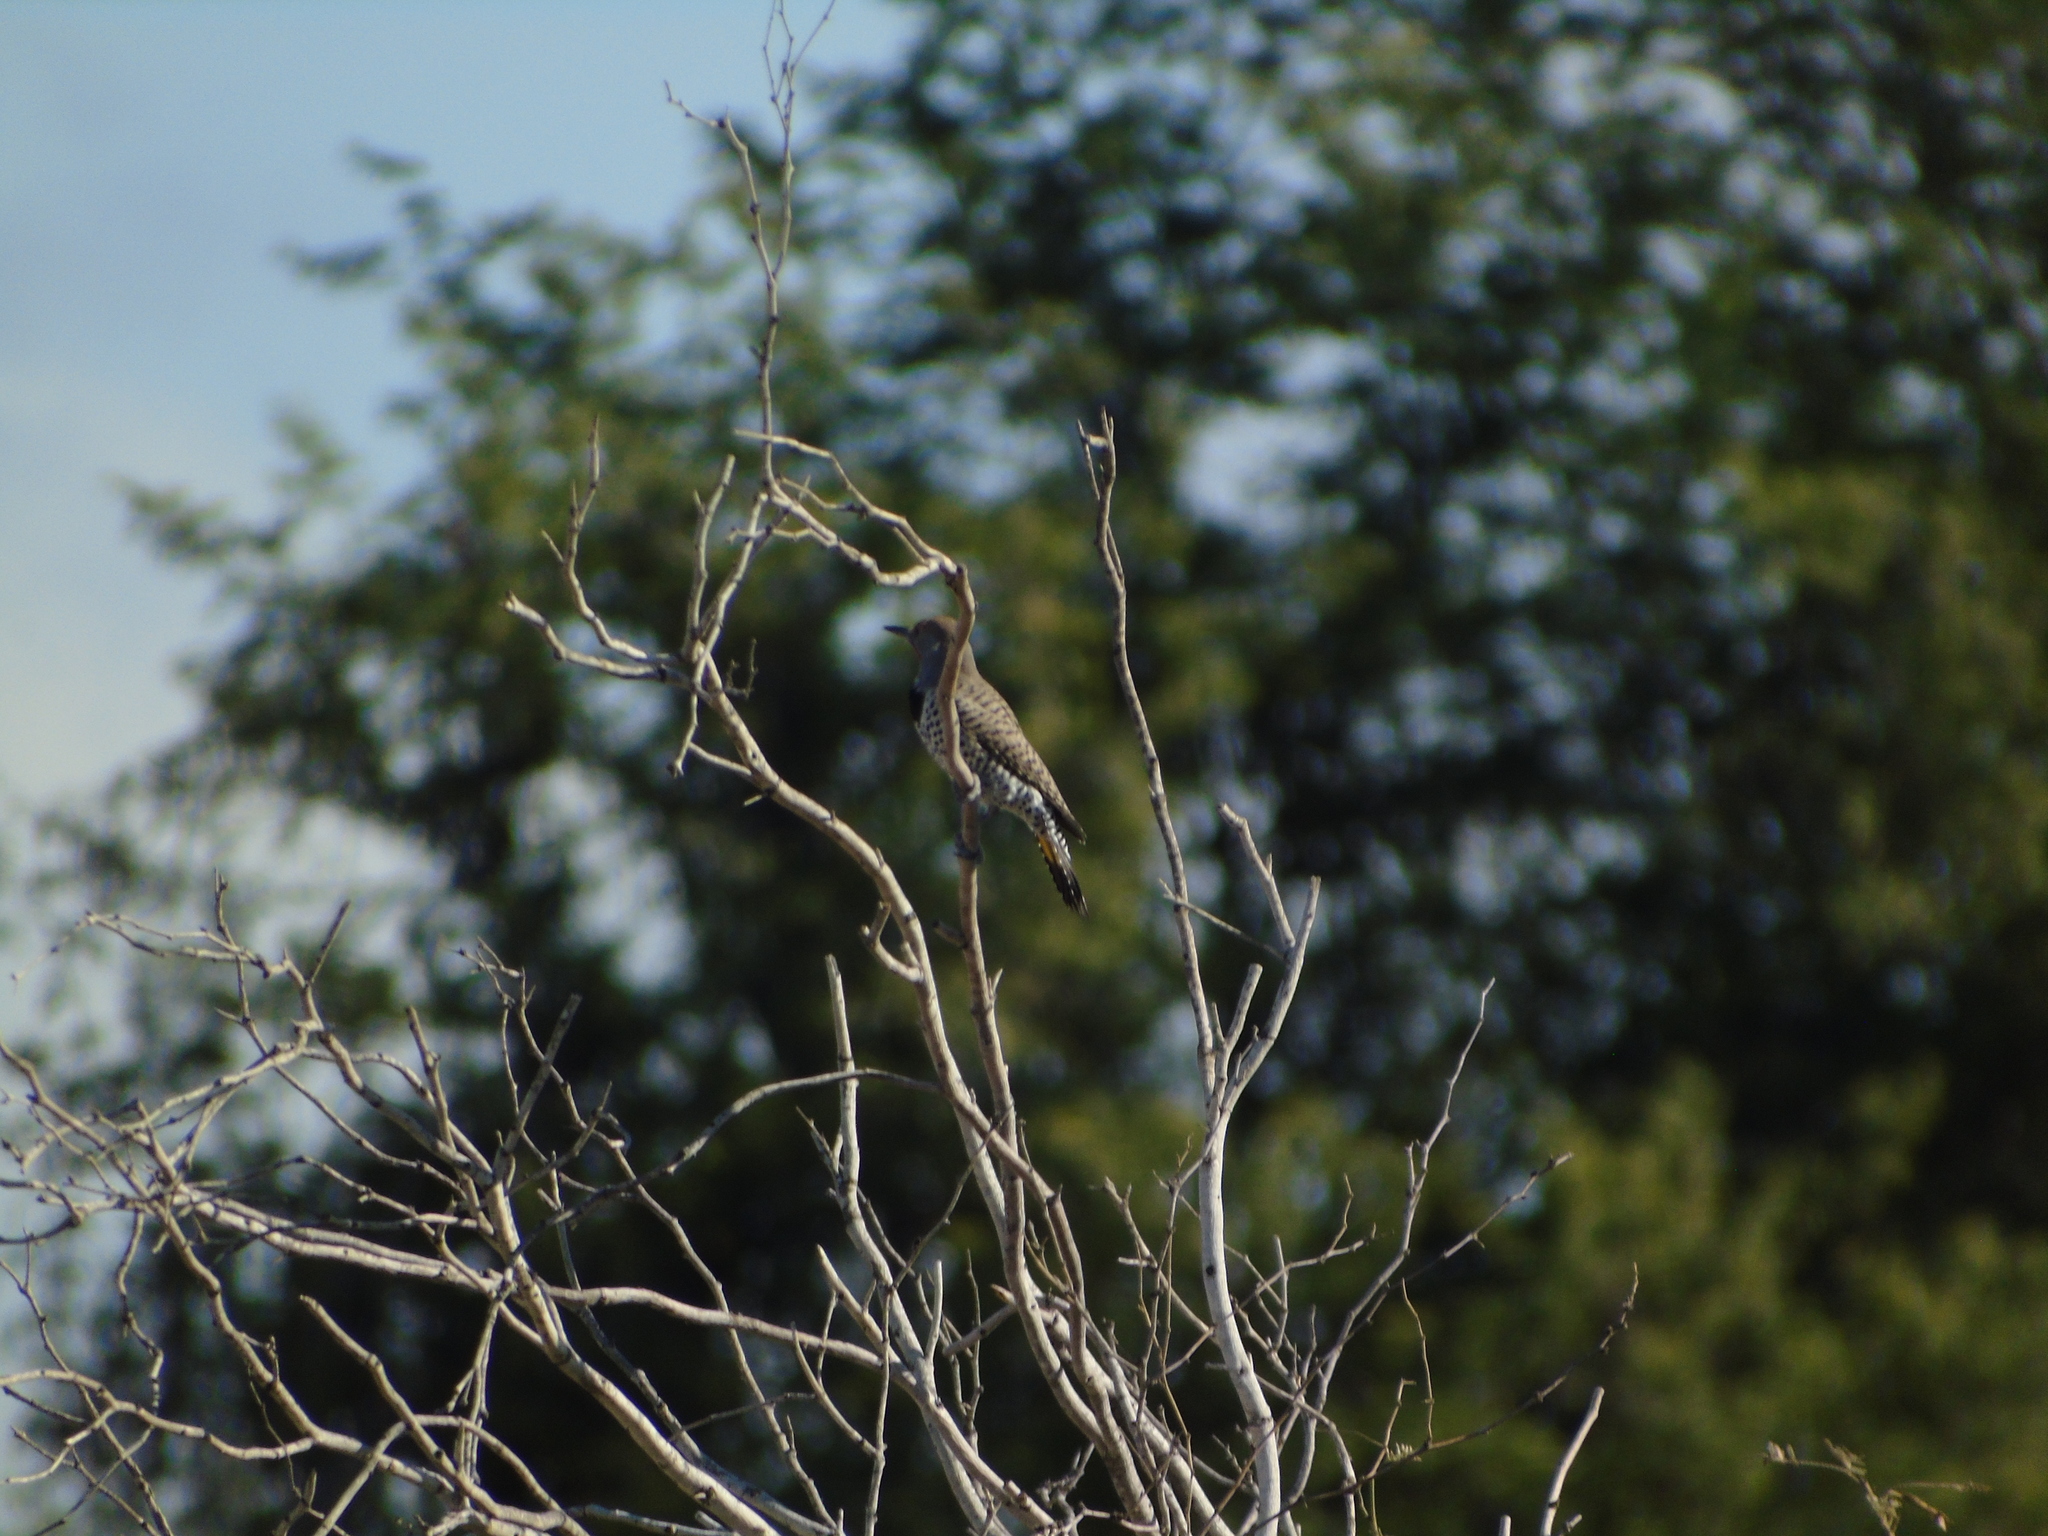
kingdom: Animalia
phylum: Chordata
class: Aves
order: Piciformes
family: Picidae
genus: Colaptes
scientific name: Colaptes chrysoides
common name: Gilded flicker
